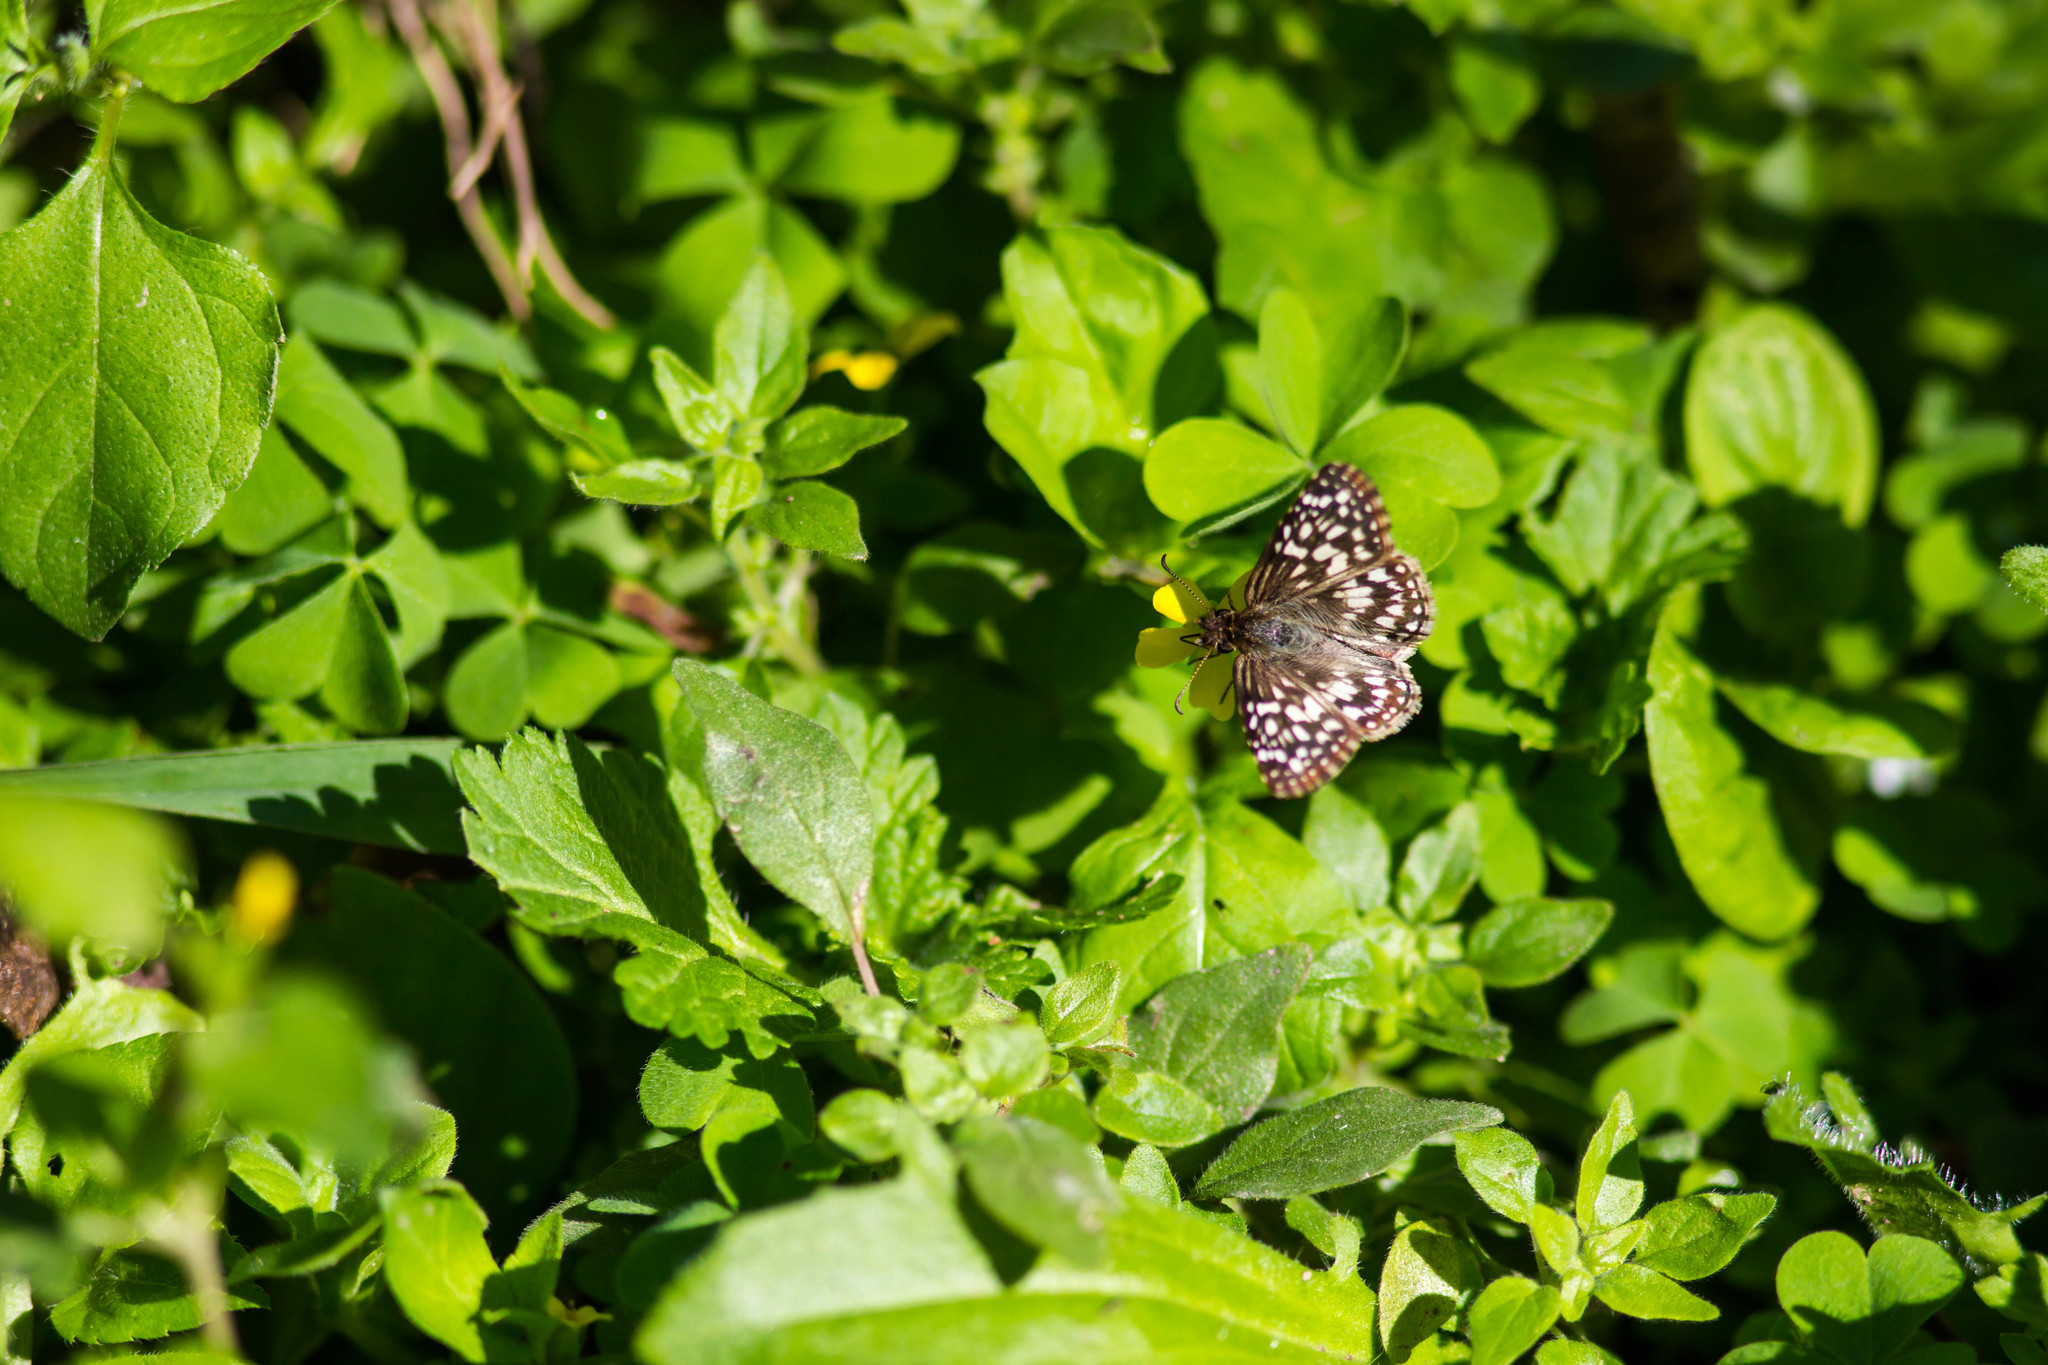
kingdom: Animalia
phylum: Arthropoda
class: Insecta
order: Lepidoptera
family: Hesperiidae
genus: Pyrgus
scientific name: Pyrgus oileus
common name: Tropical checkered-skipper
